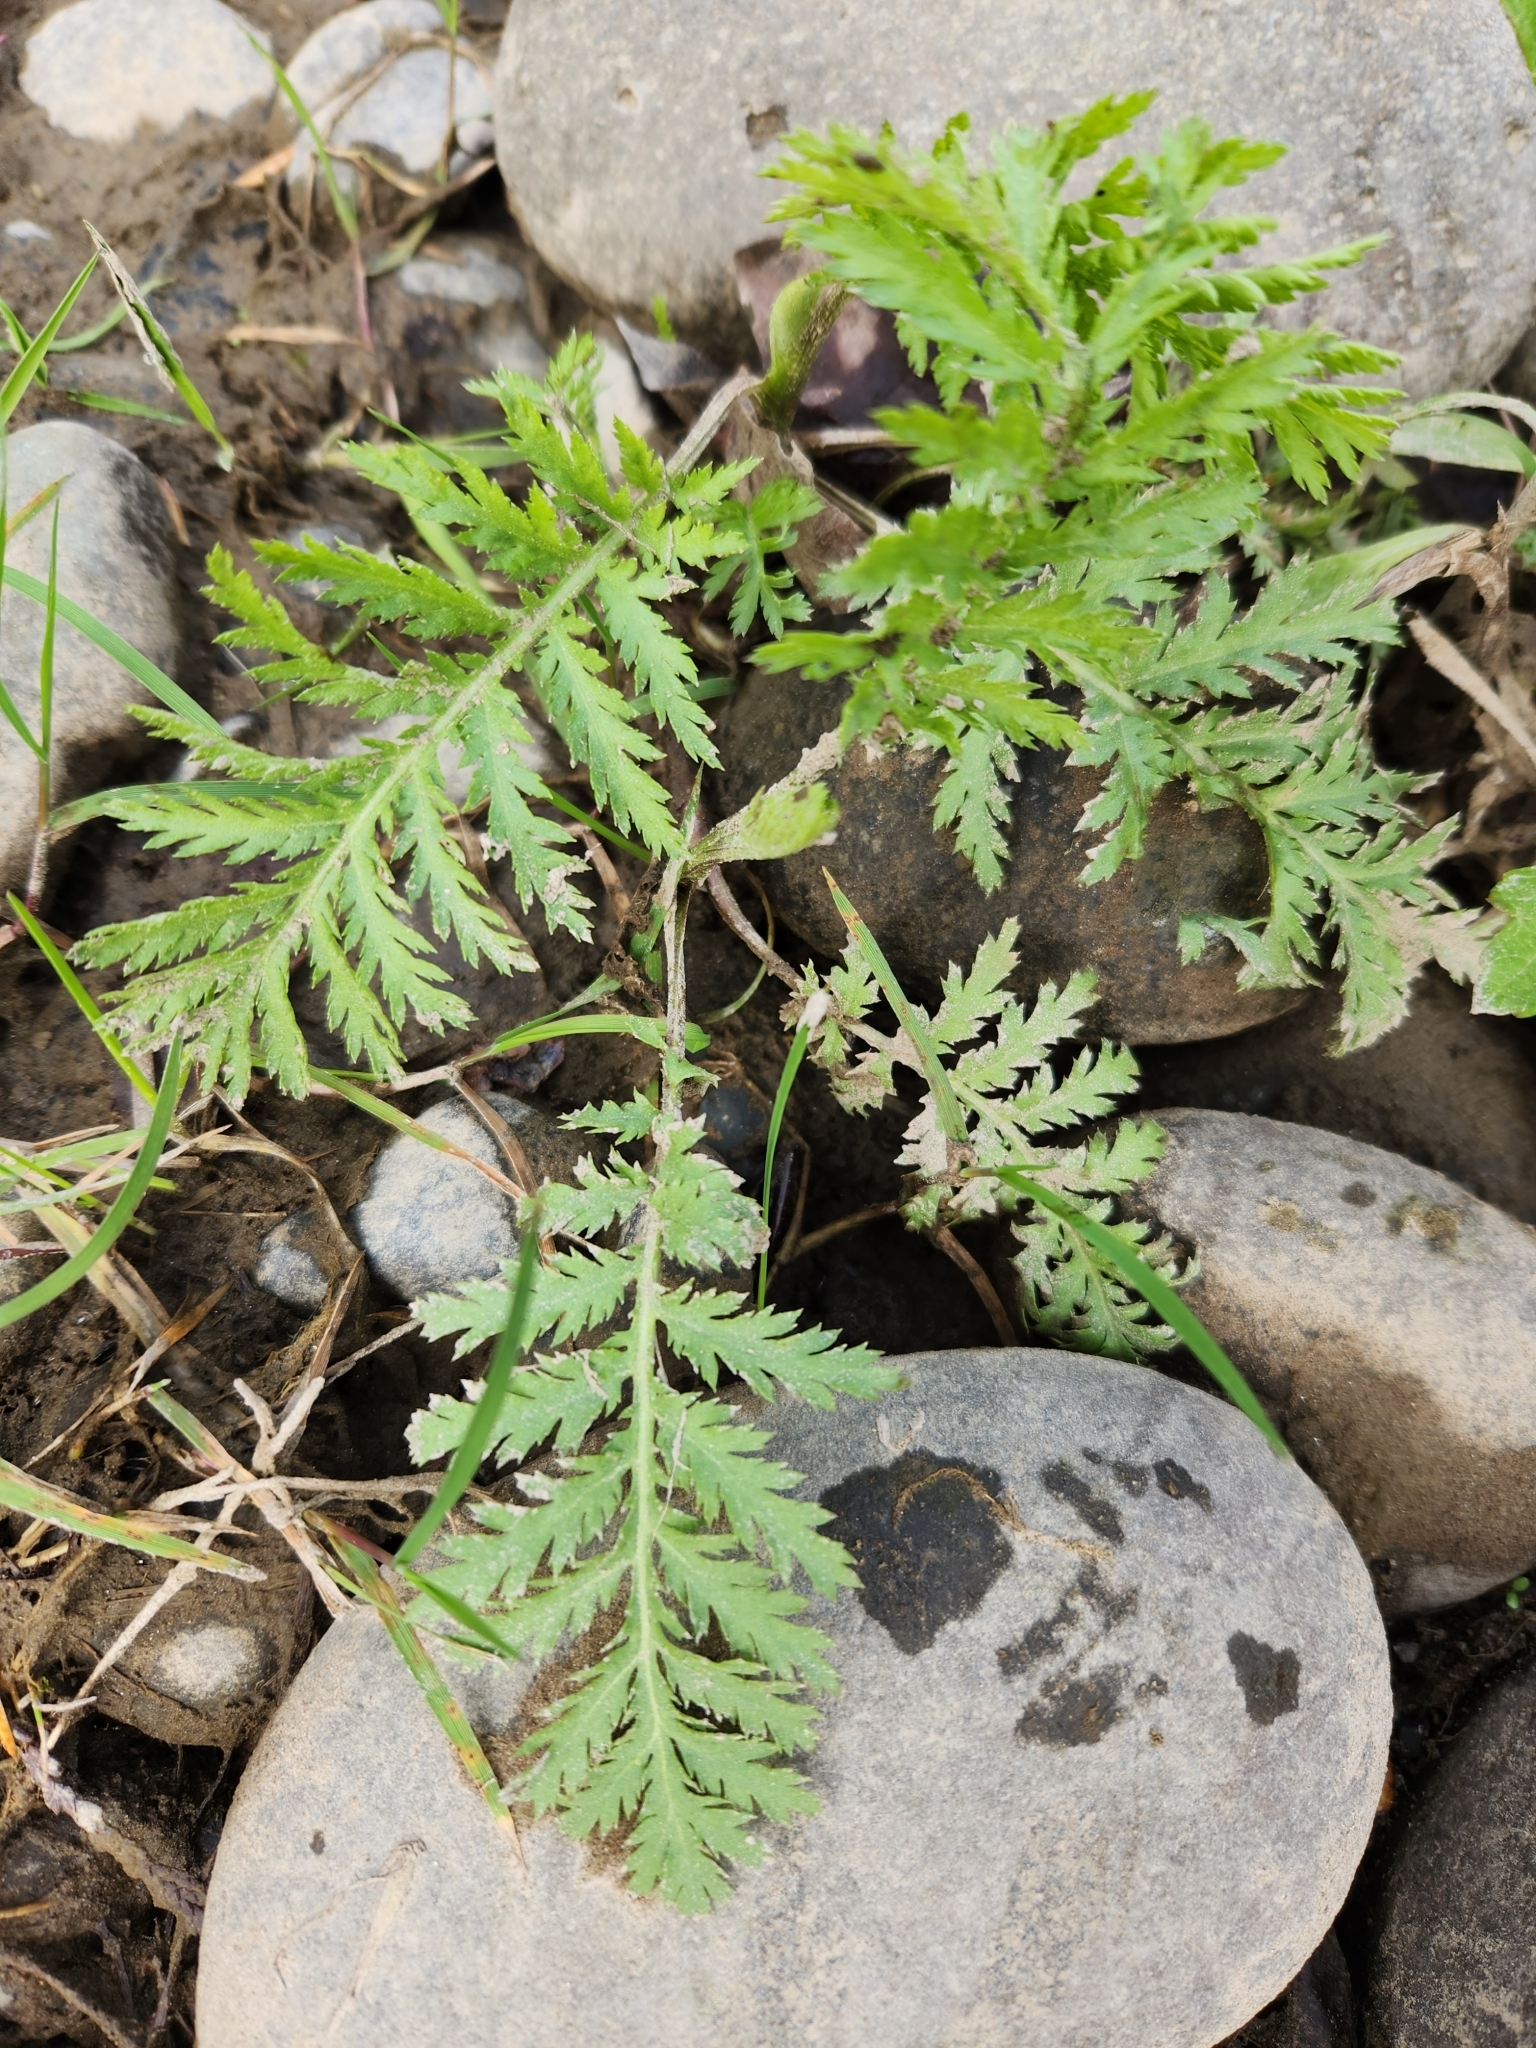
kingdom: Plantae
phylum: Tracheophyta
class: Magnoliopsida
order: Asterales
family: Asteraceae
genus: Tanacetum
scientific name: Tanacetum vulgare
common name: Common tansy
